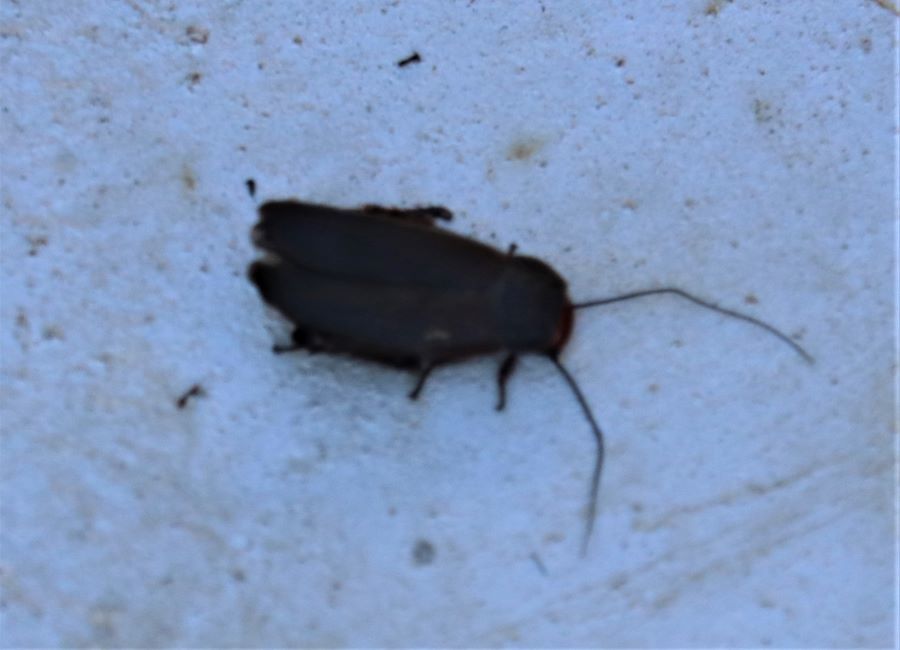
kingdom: Animalia
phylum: Arthropoda
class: Insecta
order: Blattodea
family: Blaberidae
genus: Oxyhaloa
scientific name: Oxyhaloa deusta
